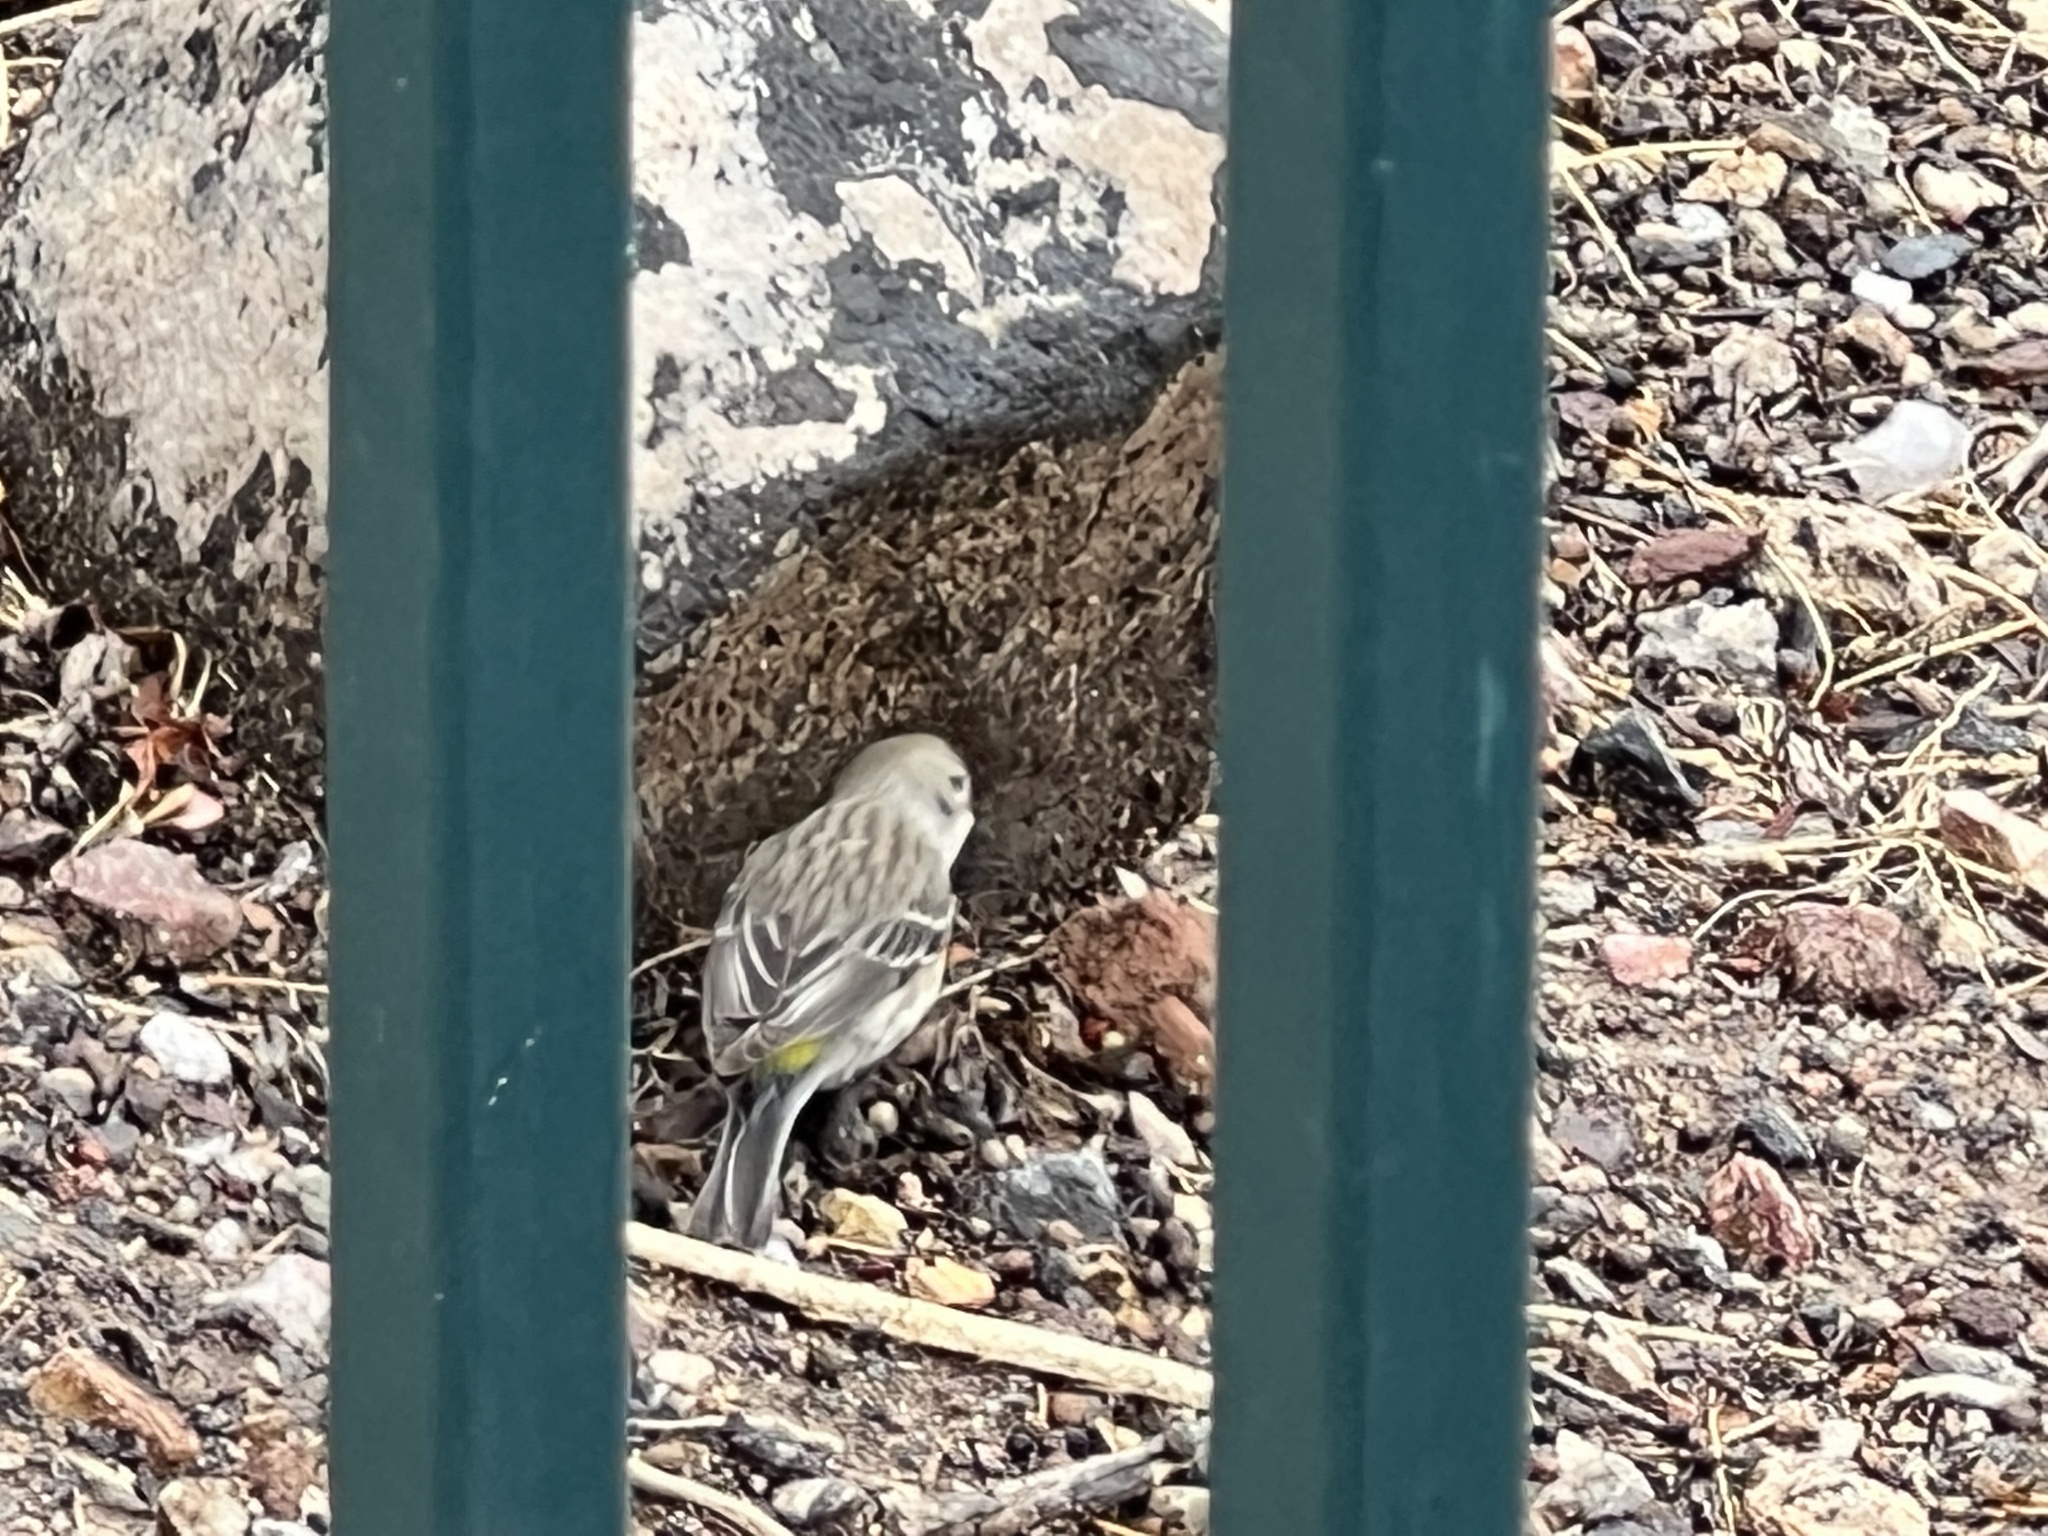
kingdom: Animalia
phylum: Chordata
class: Aves
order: Passeriformes
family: Parulidae
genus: Setophaga
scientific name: Setophaga coronata
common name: Myrtle warbler
